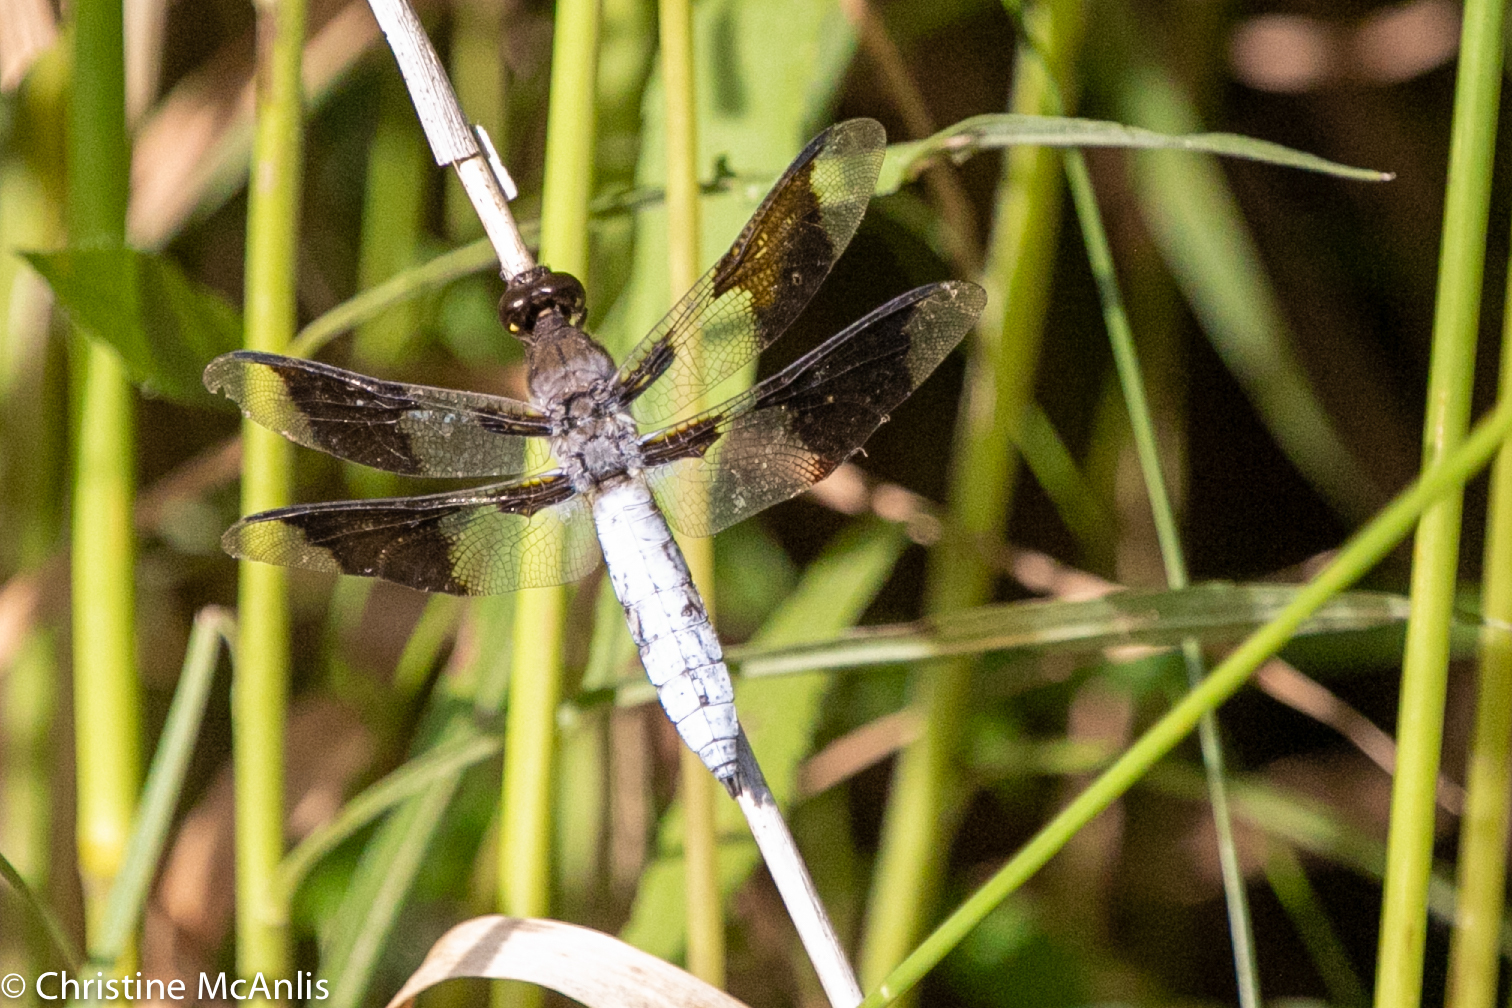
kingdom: Animalia
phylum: Arthropoda
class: Insecta
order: Odonata
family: Libellulidae
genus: Plathemis
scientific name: Plathemis lydia
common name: Common whitetail
